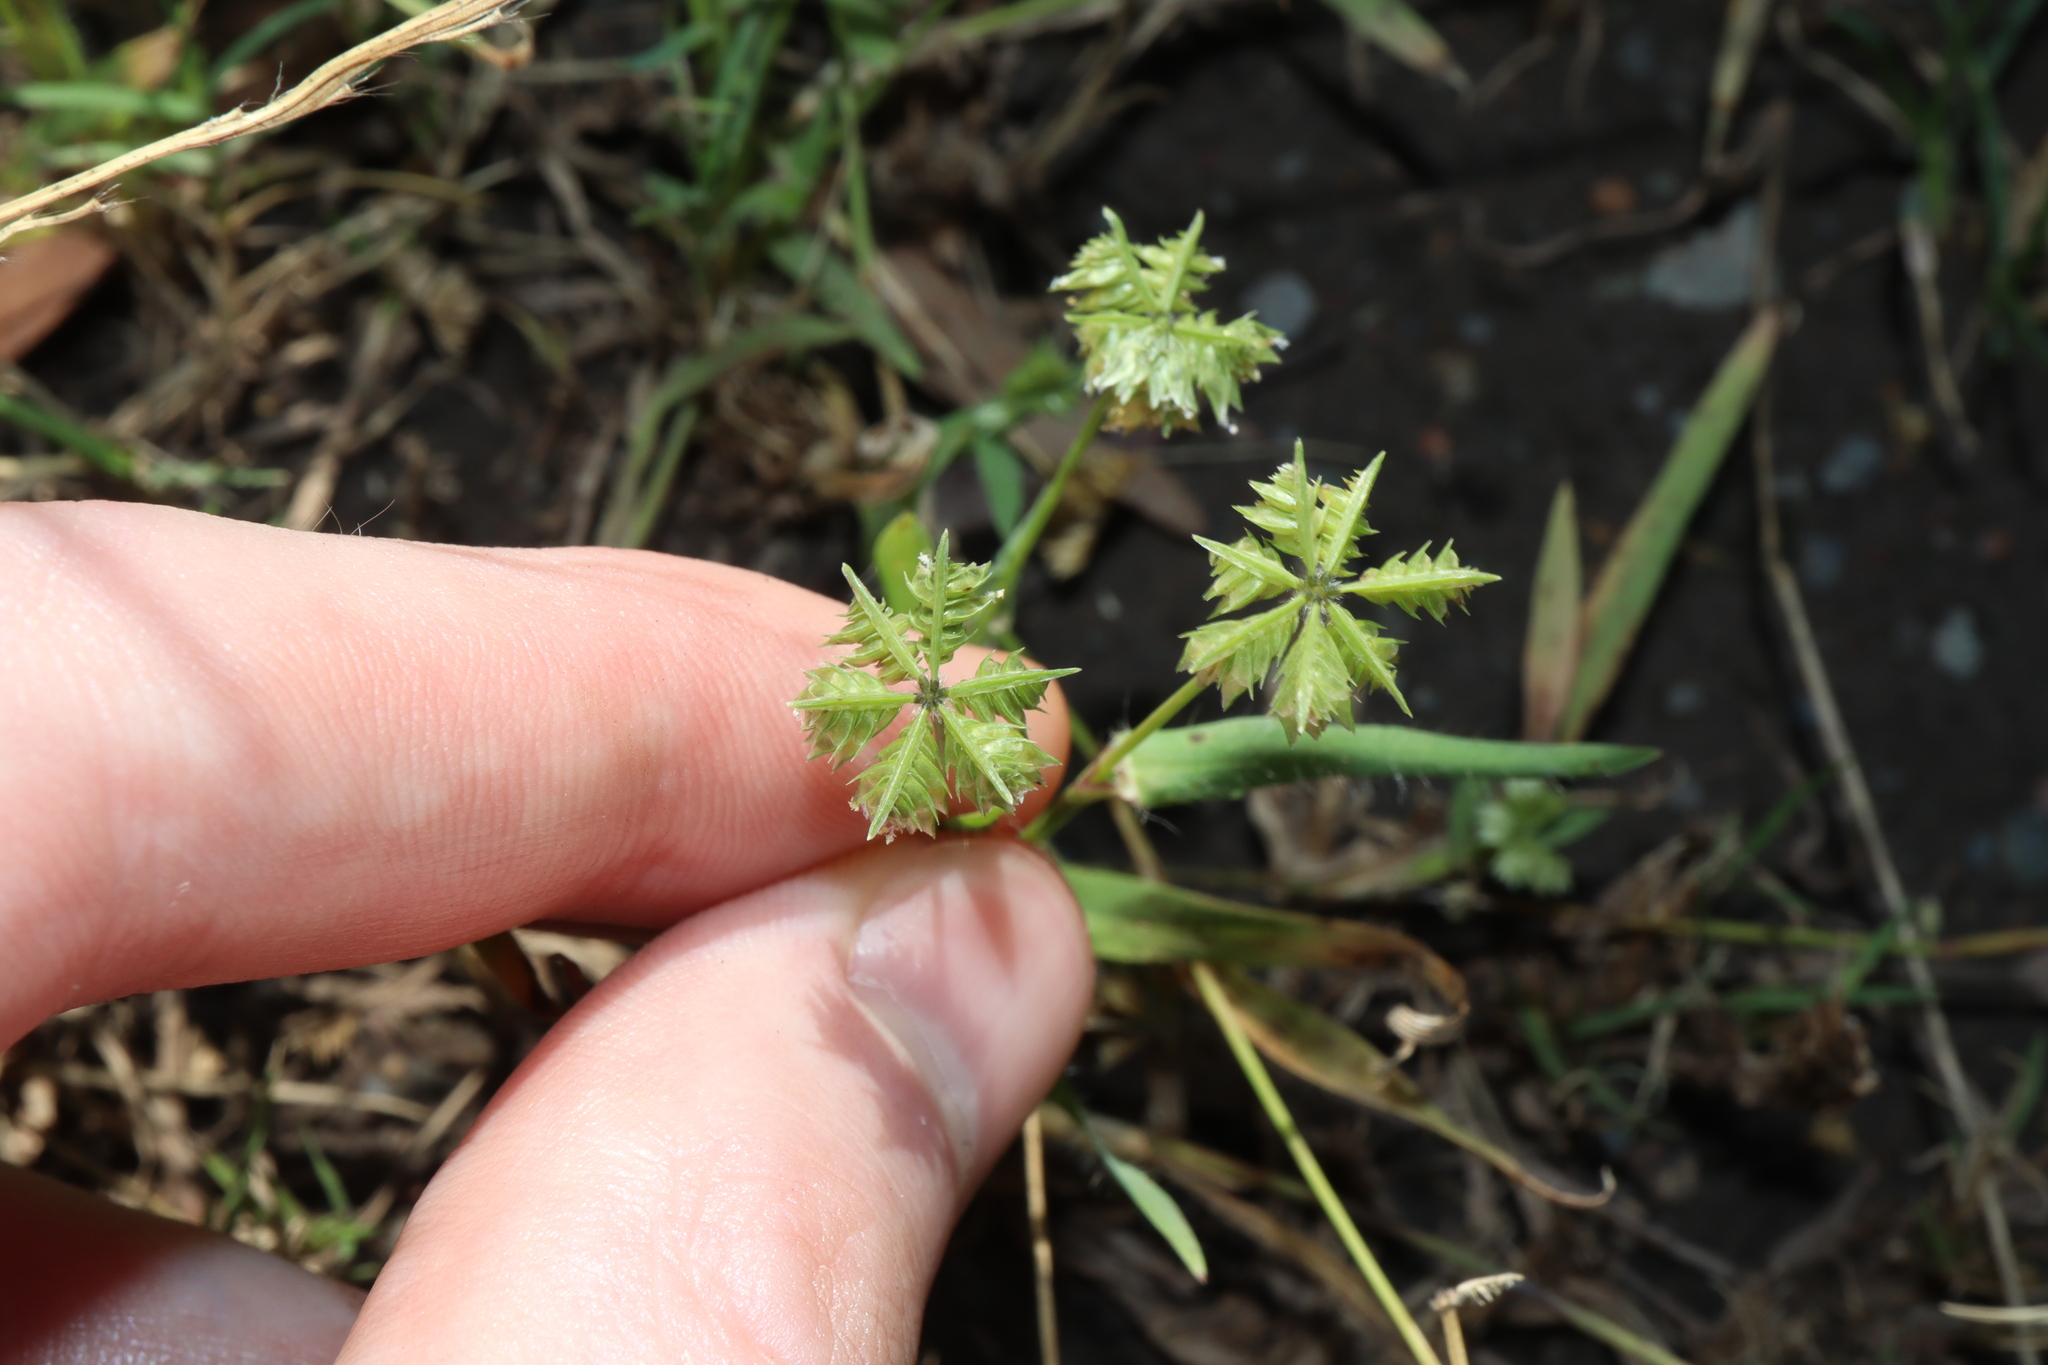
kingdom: Plantae
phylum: Tracheophyta
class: Liliopsida
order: Poales
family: Poaceae
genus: Dactyloctenium
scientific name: Dactyloctenium radulans
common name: Button-grass
